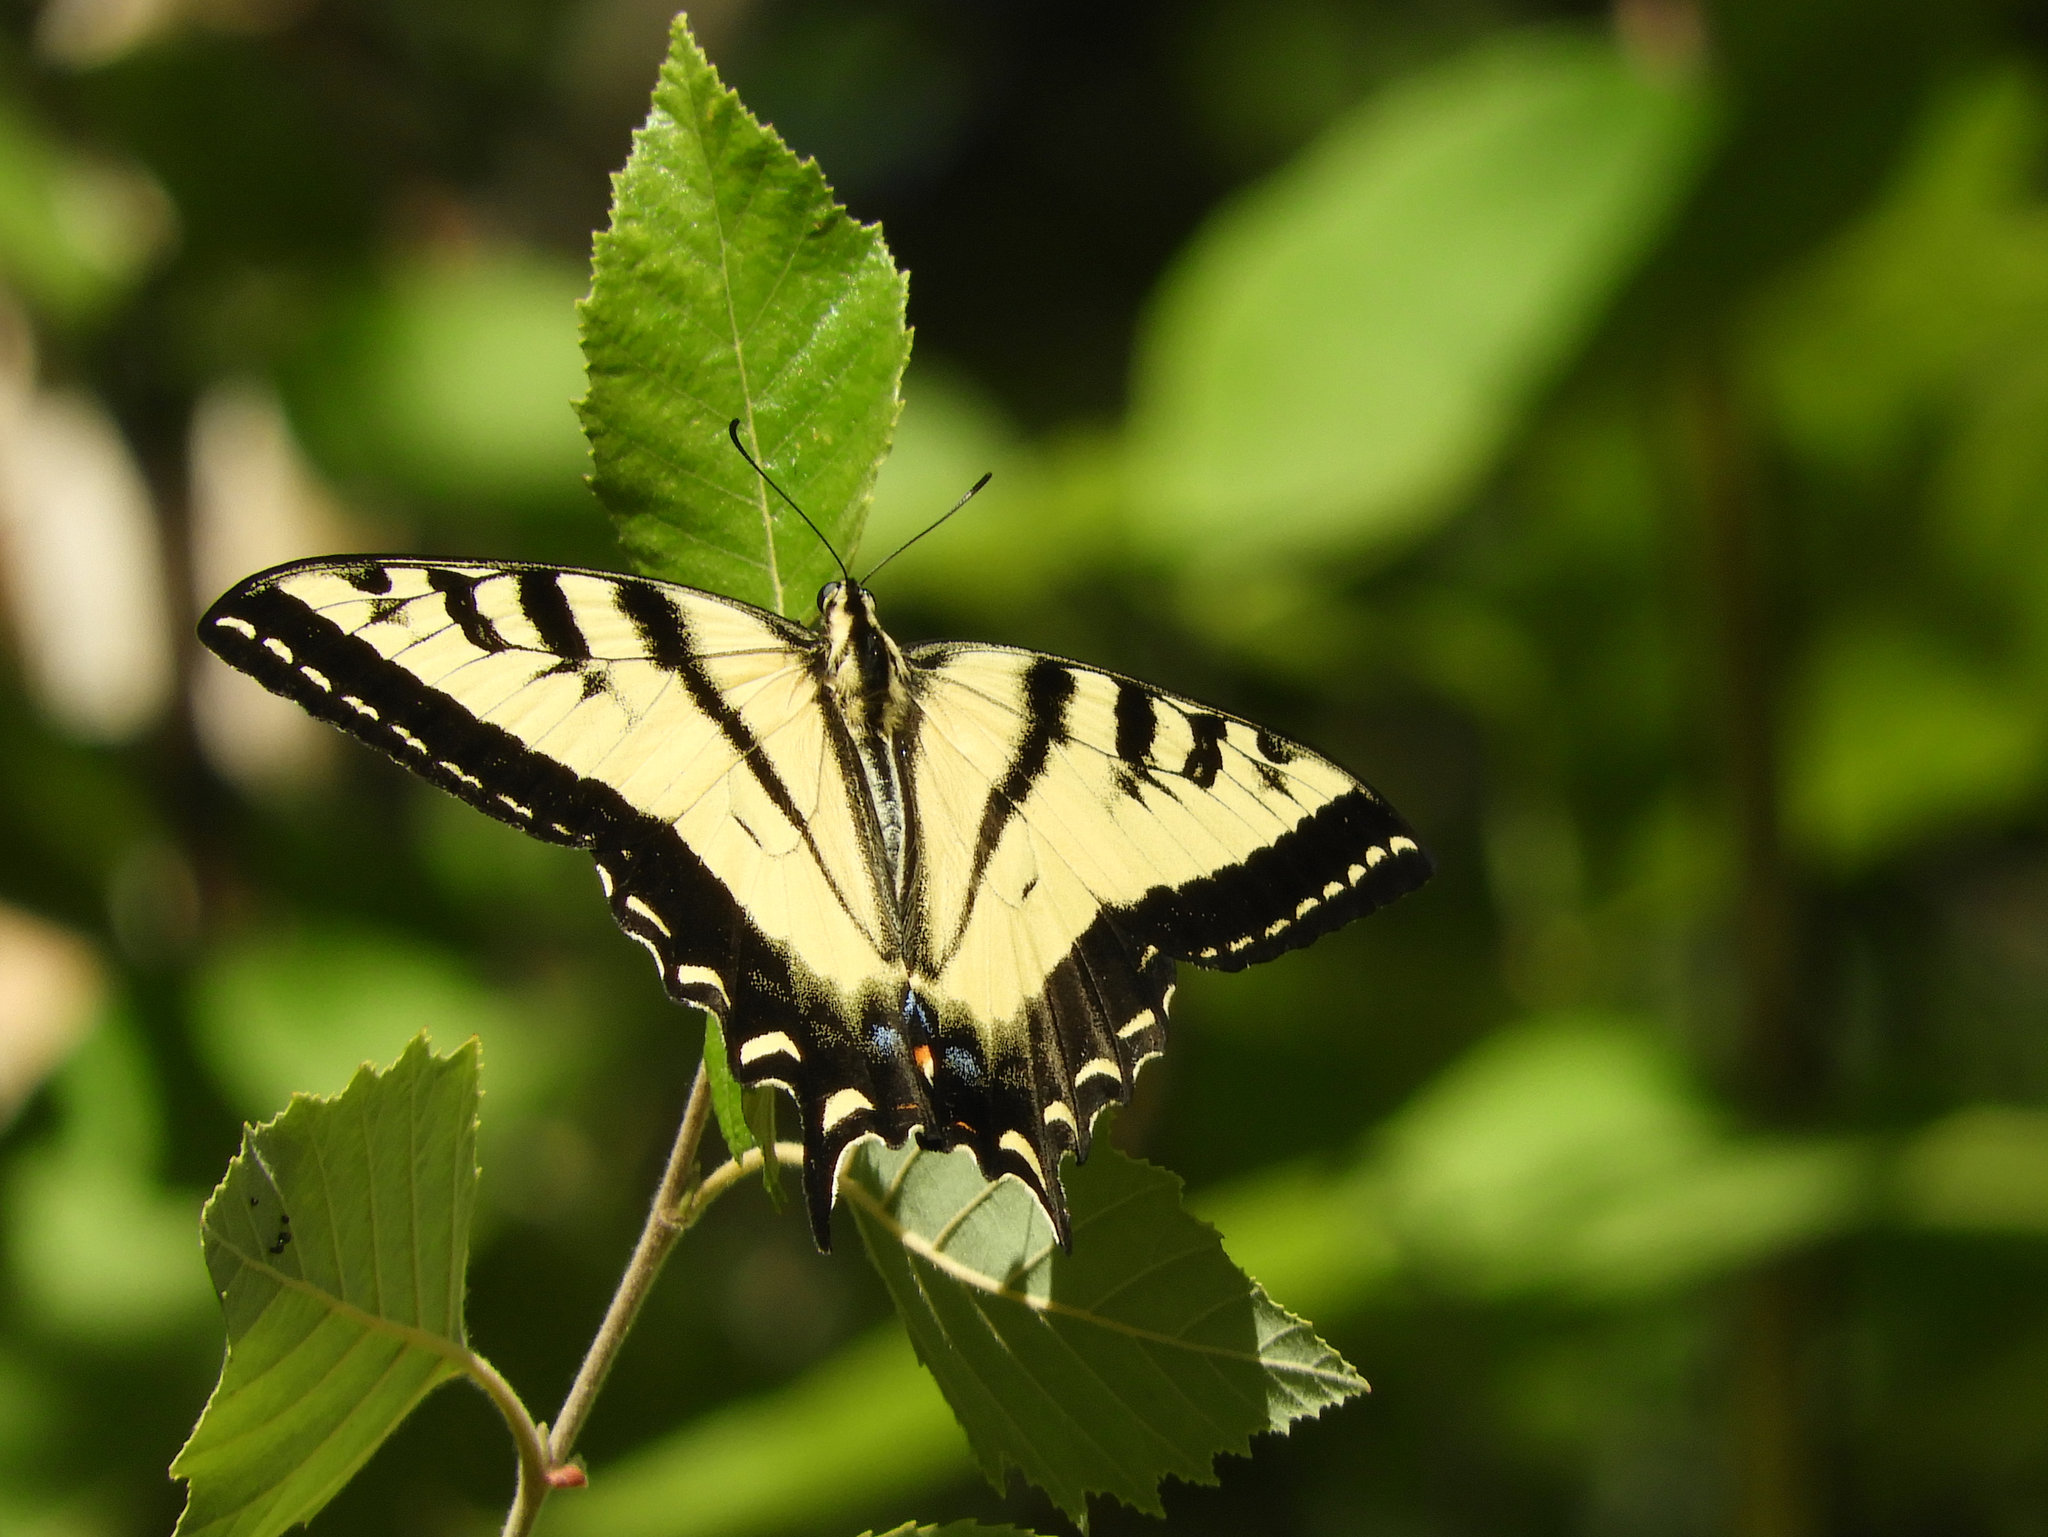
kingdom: Animalia
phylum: Arthropoda
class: Insecta
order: Lepidoptera
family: Papilionidae
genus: Papilio
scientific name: Papilio rutulus
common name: Western tiger swallowtail
